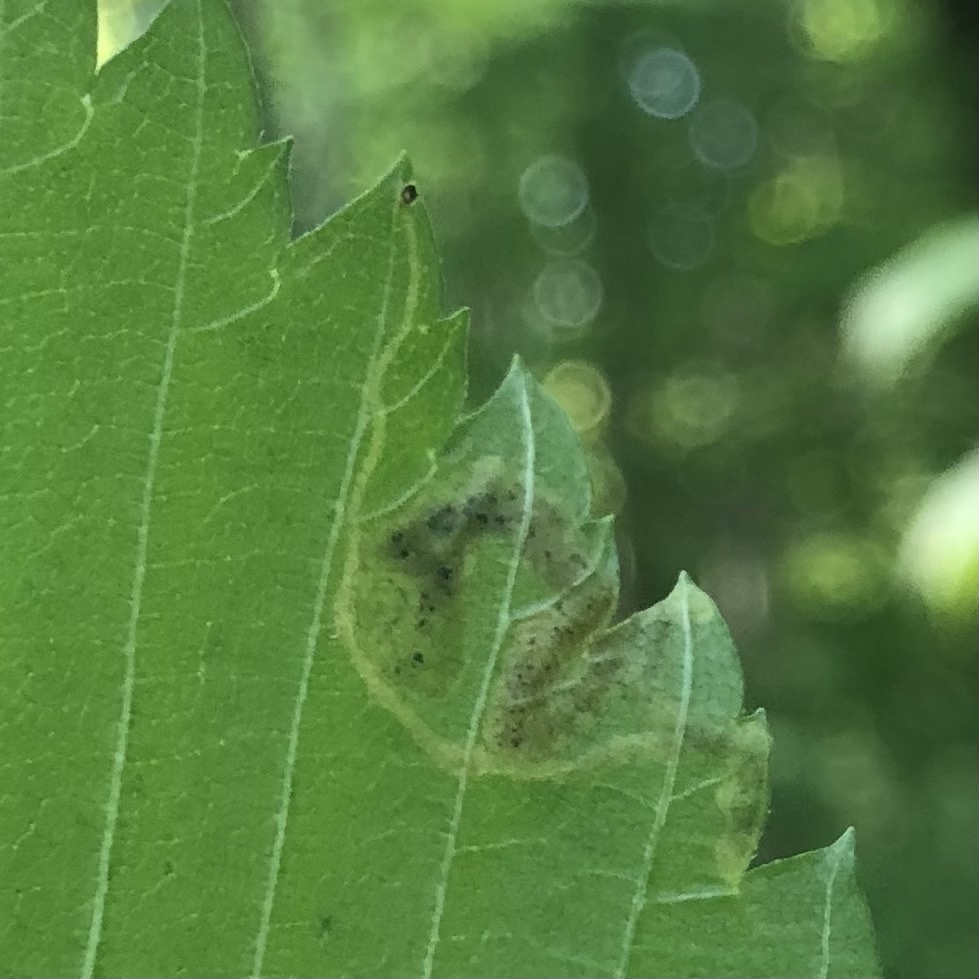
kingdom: Animalia
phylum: Arthropoda
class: Insecta
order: Diptera
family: Agromyzidae
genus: Agromyza
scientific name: Agromyza aristata
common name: Elm agromyzid leafminer
